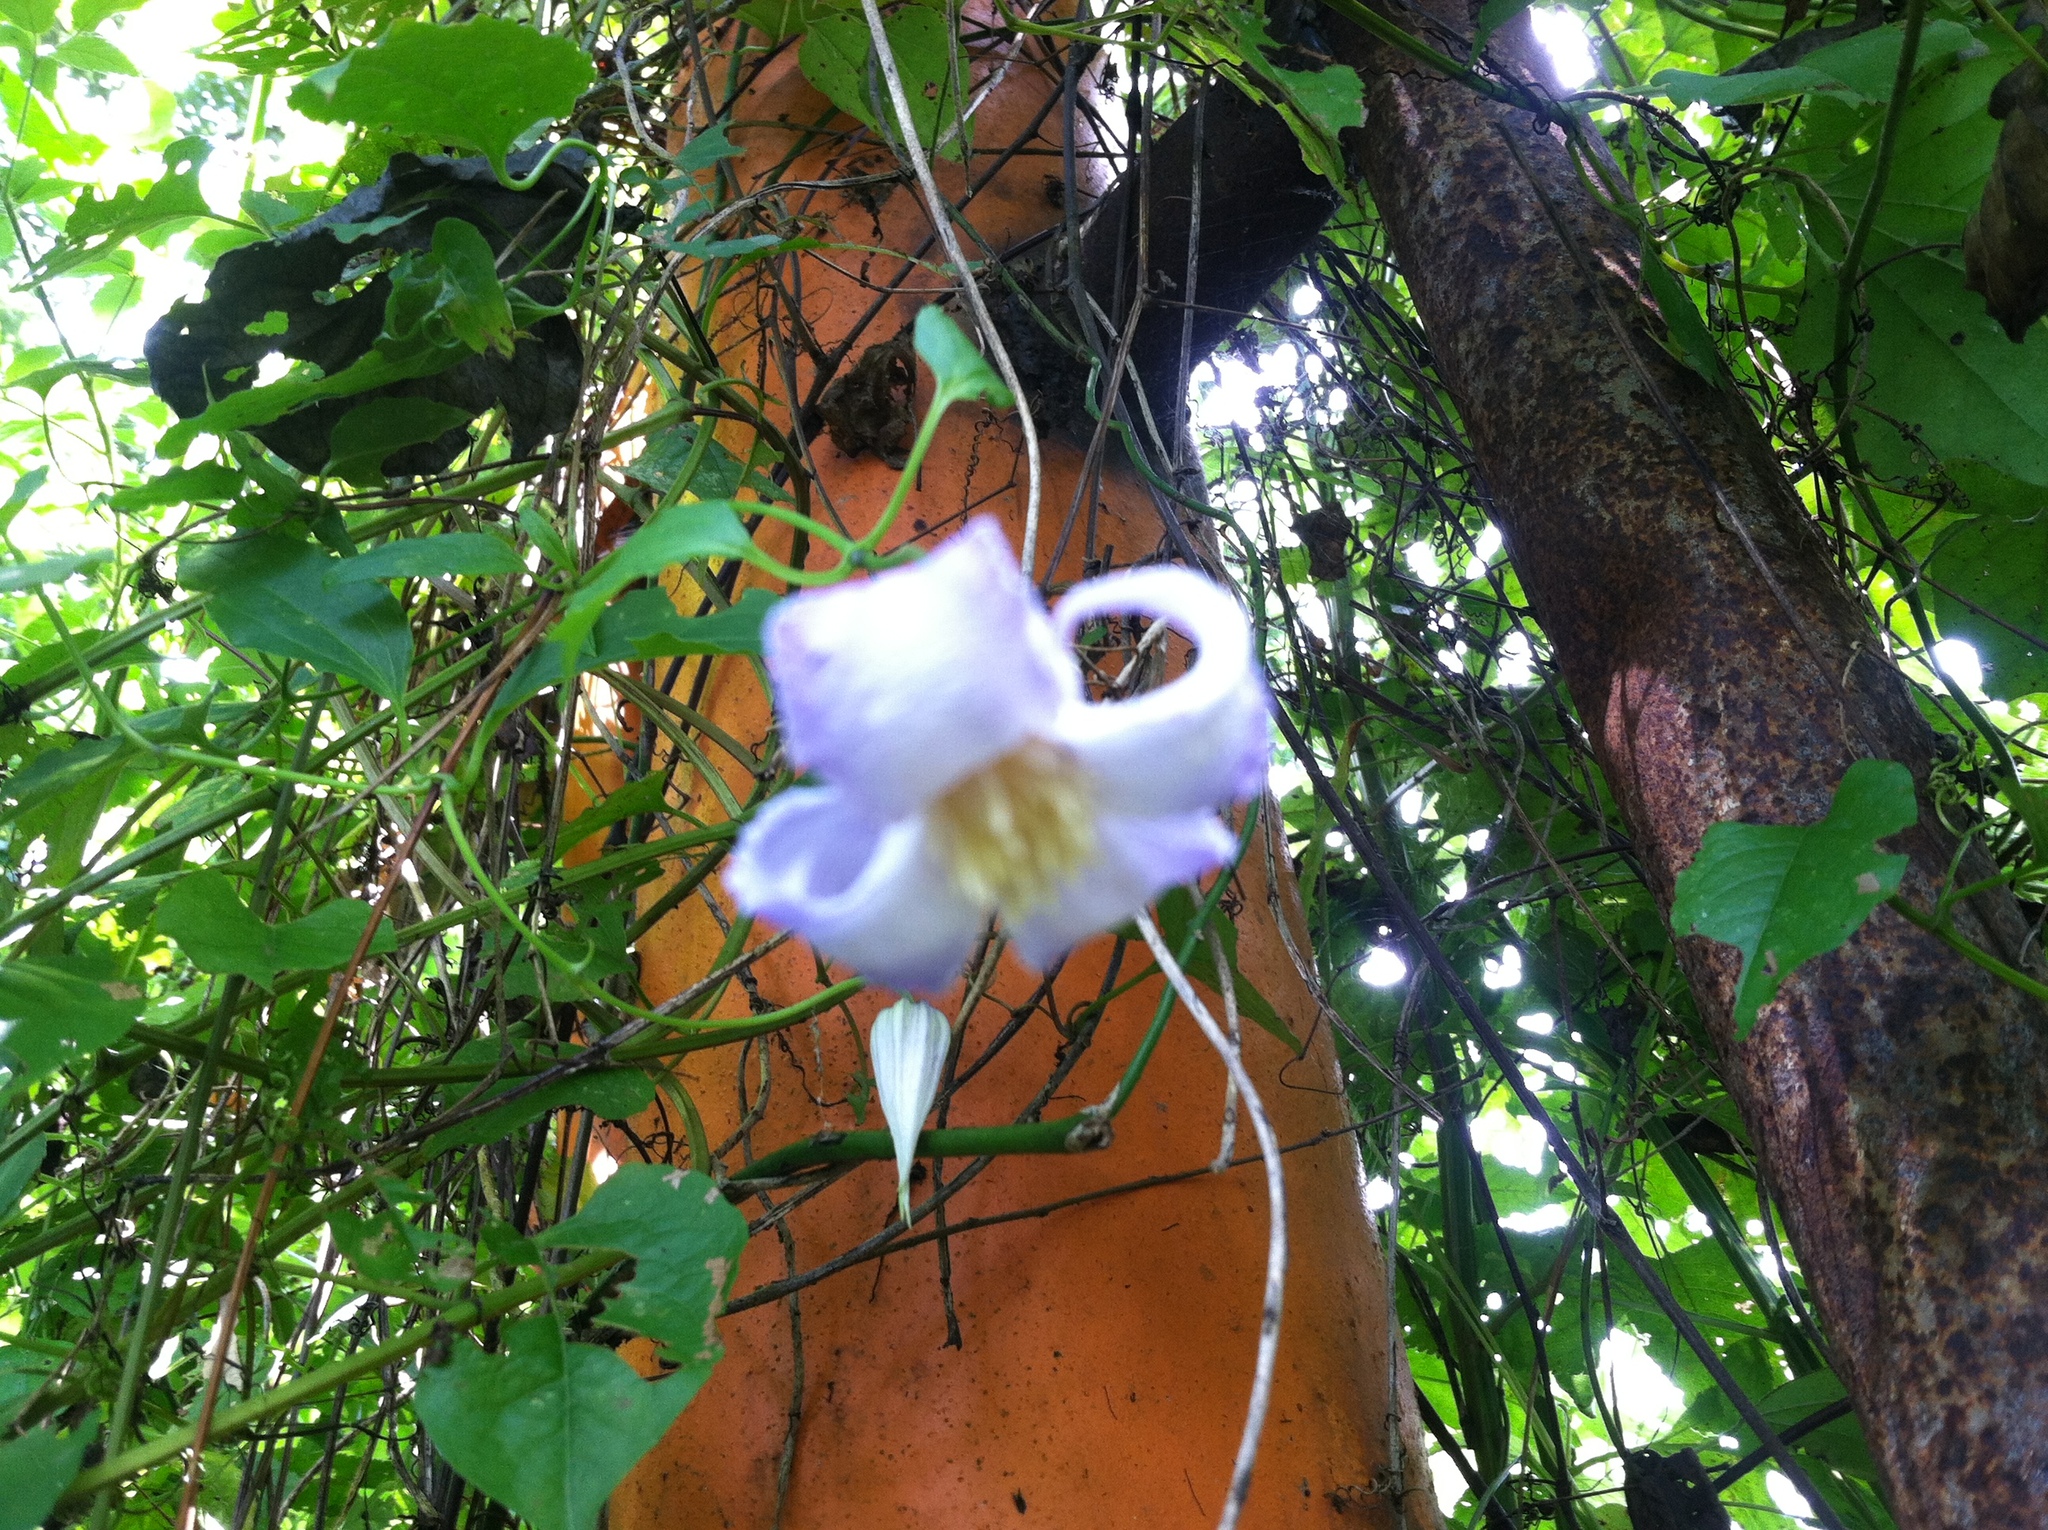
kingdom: Plantae
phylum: Tracheophyta
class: Magnoliopsida
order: Ranunculales
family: Ranunculaceae
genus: Clematis
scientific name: Clematis crispa
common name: Curly clematis
